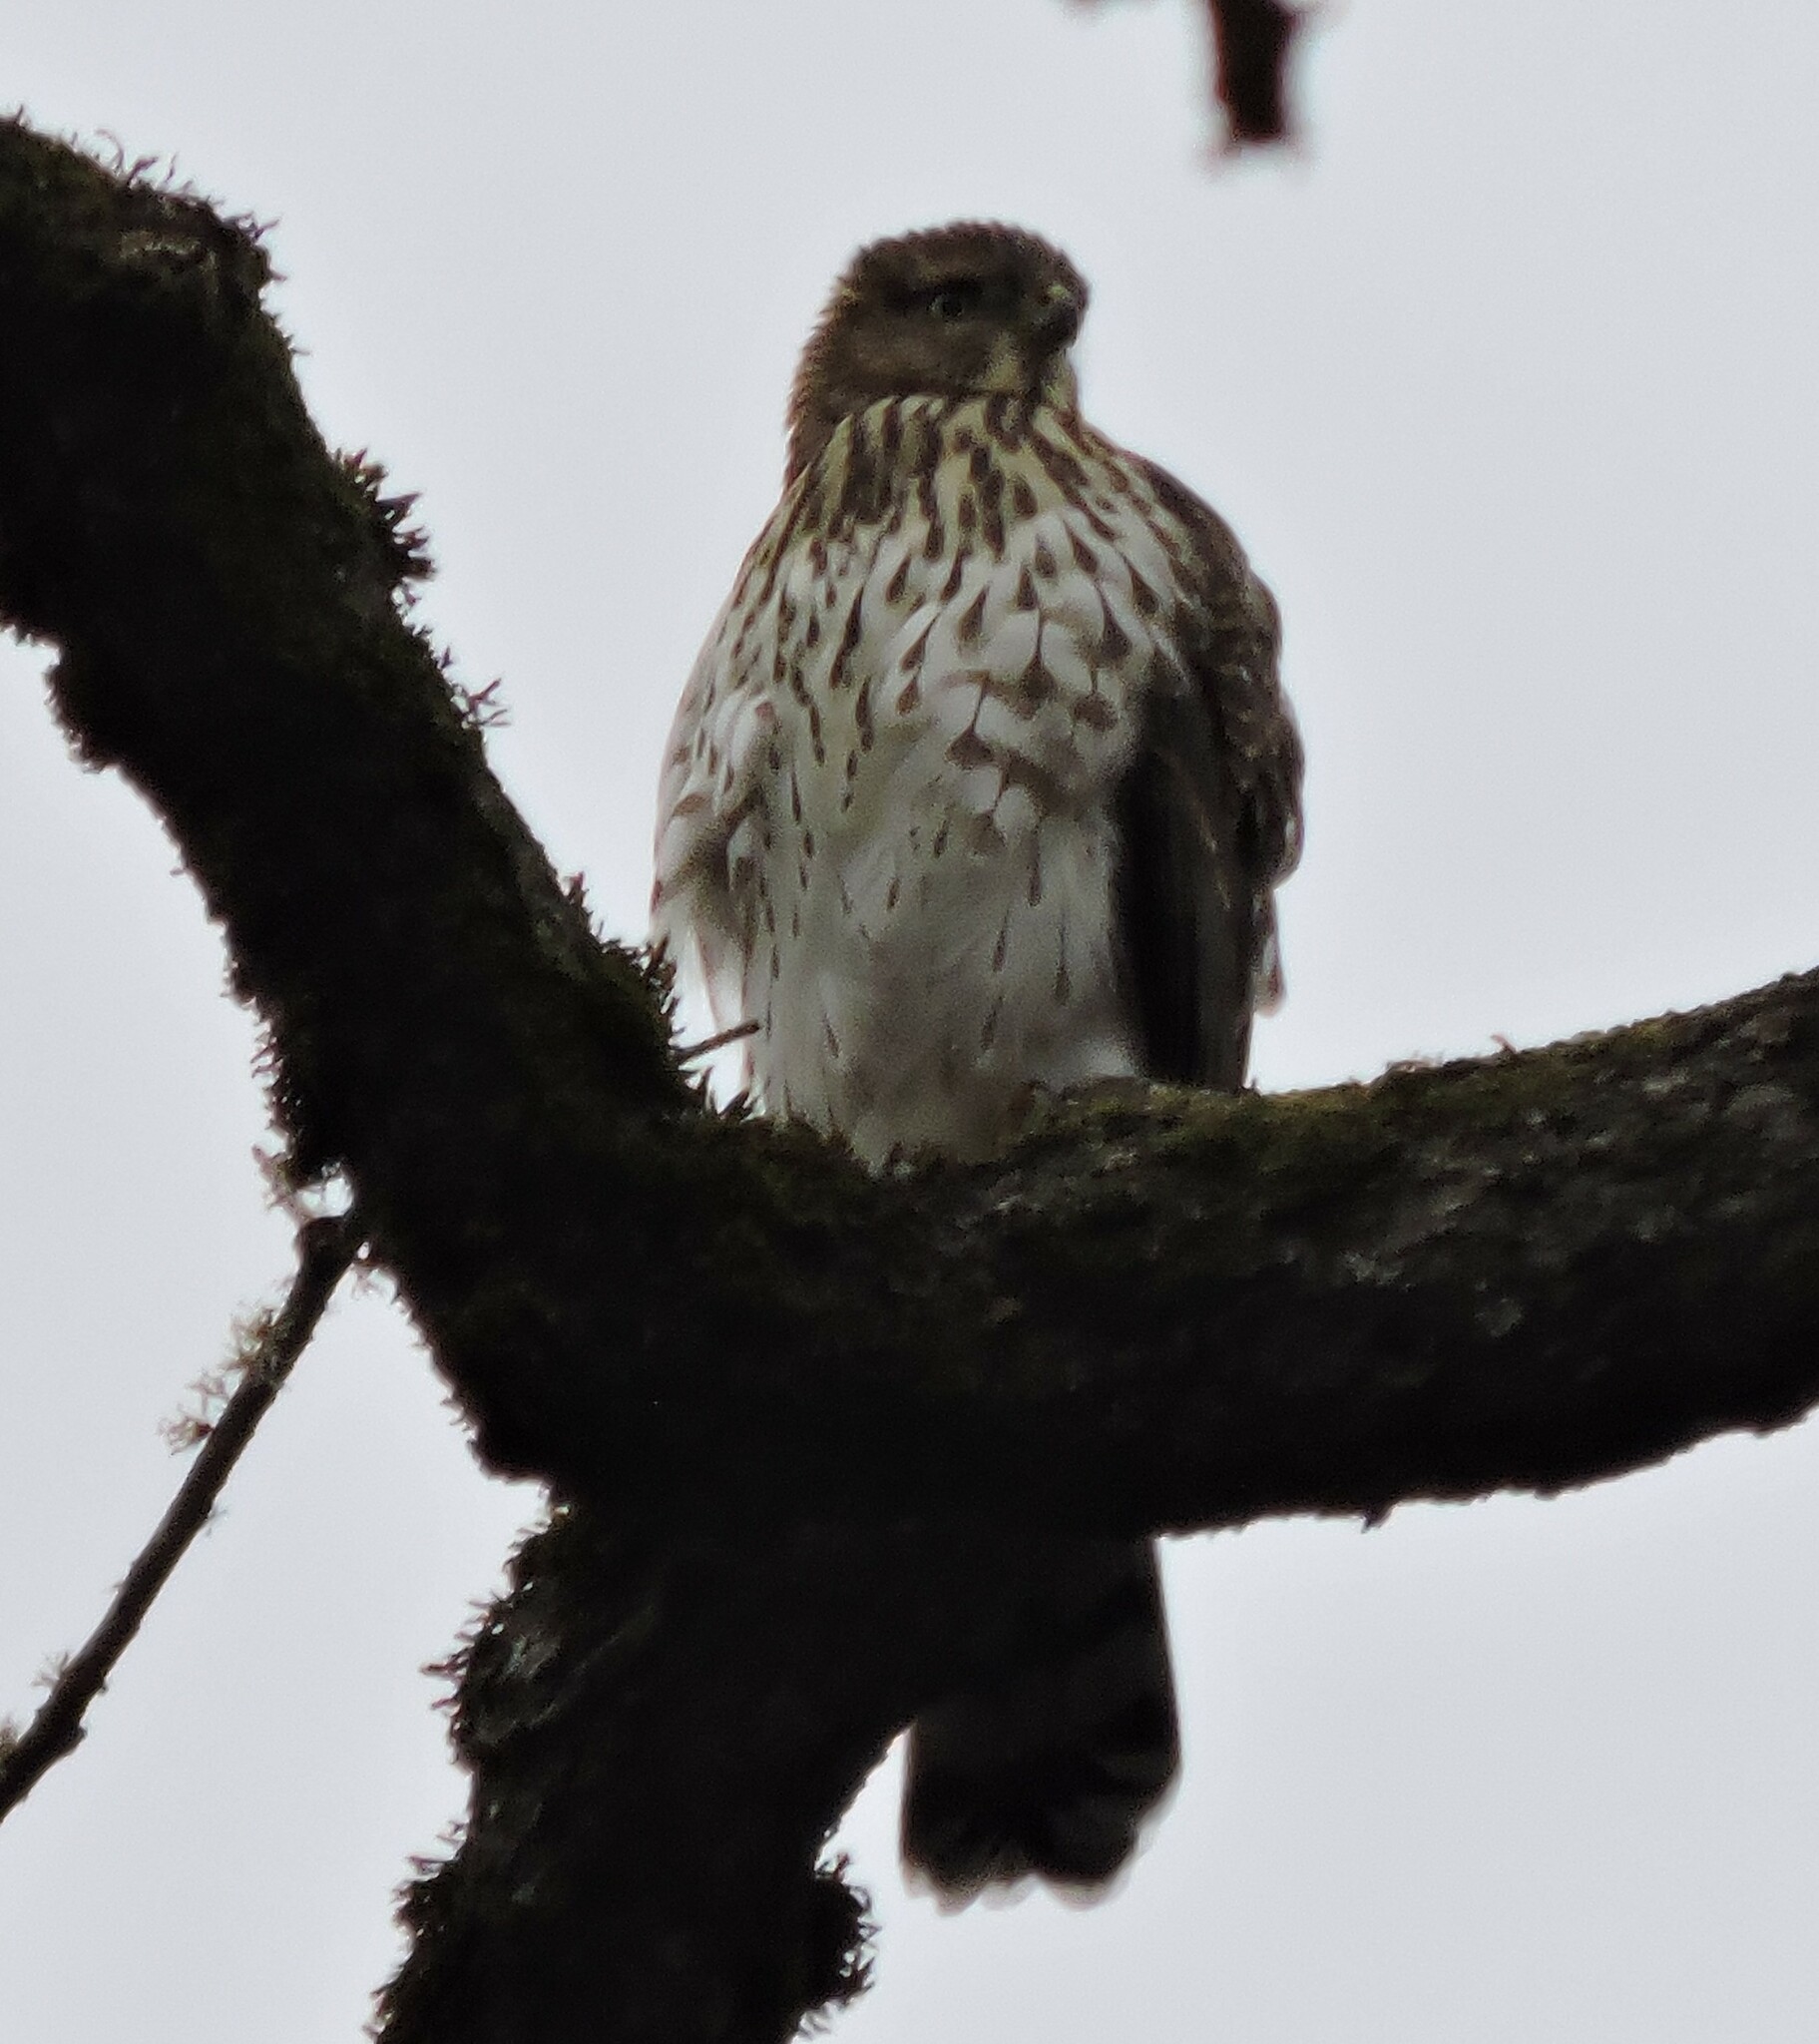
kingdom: Animalia
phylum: Chordata
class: Aves
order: Accipitriformes
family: Accipitridae
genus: Accipiter
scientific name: Accipiter cooperii
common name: Cooper's hawk
